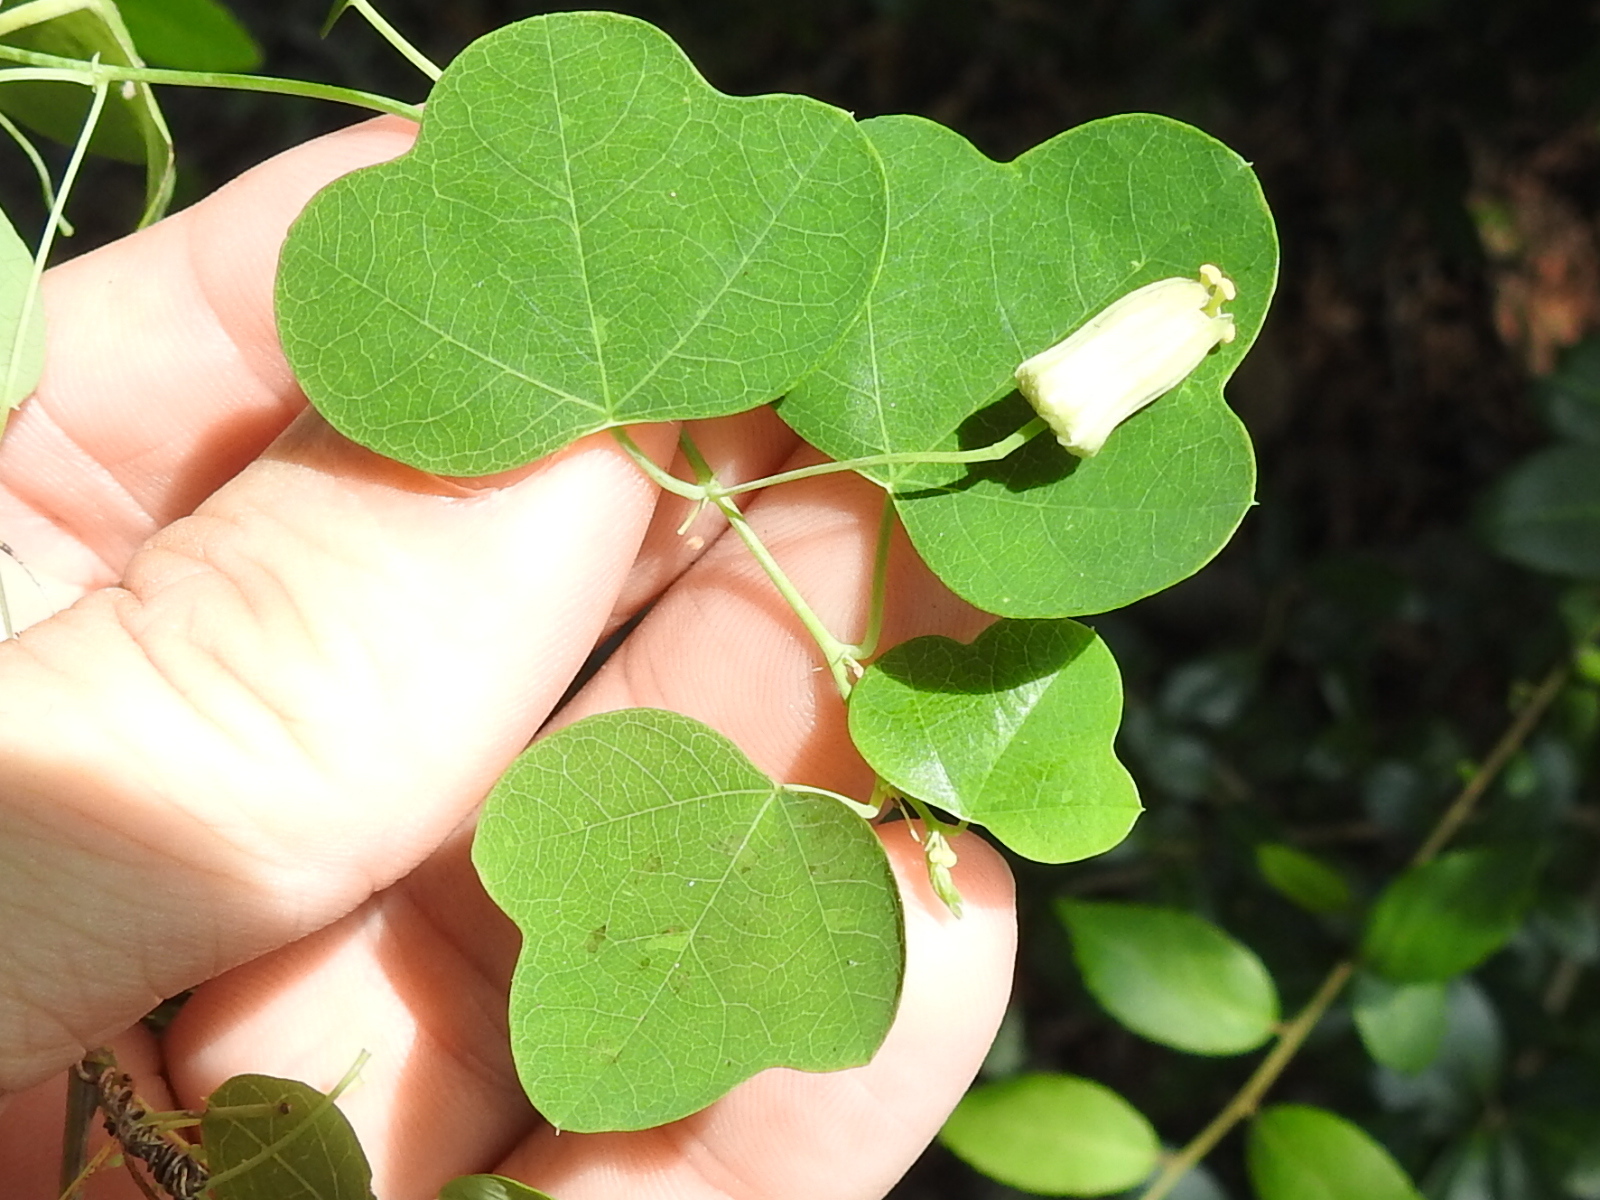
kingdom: Plantae
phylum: Tracheophyta
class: Magnoliopsida
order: Malpighiales
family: Passifloraceae
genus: Passiflora
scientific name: Passiflora lutea
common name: Yellow passionflower
